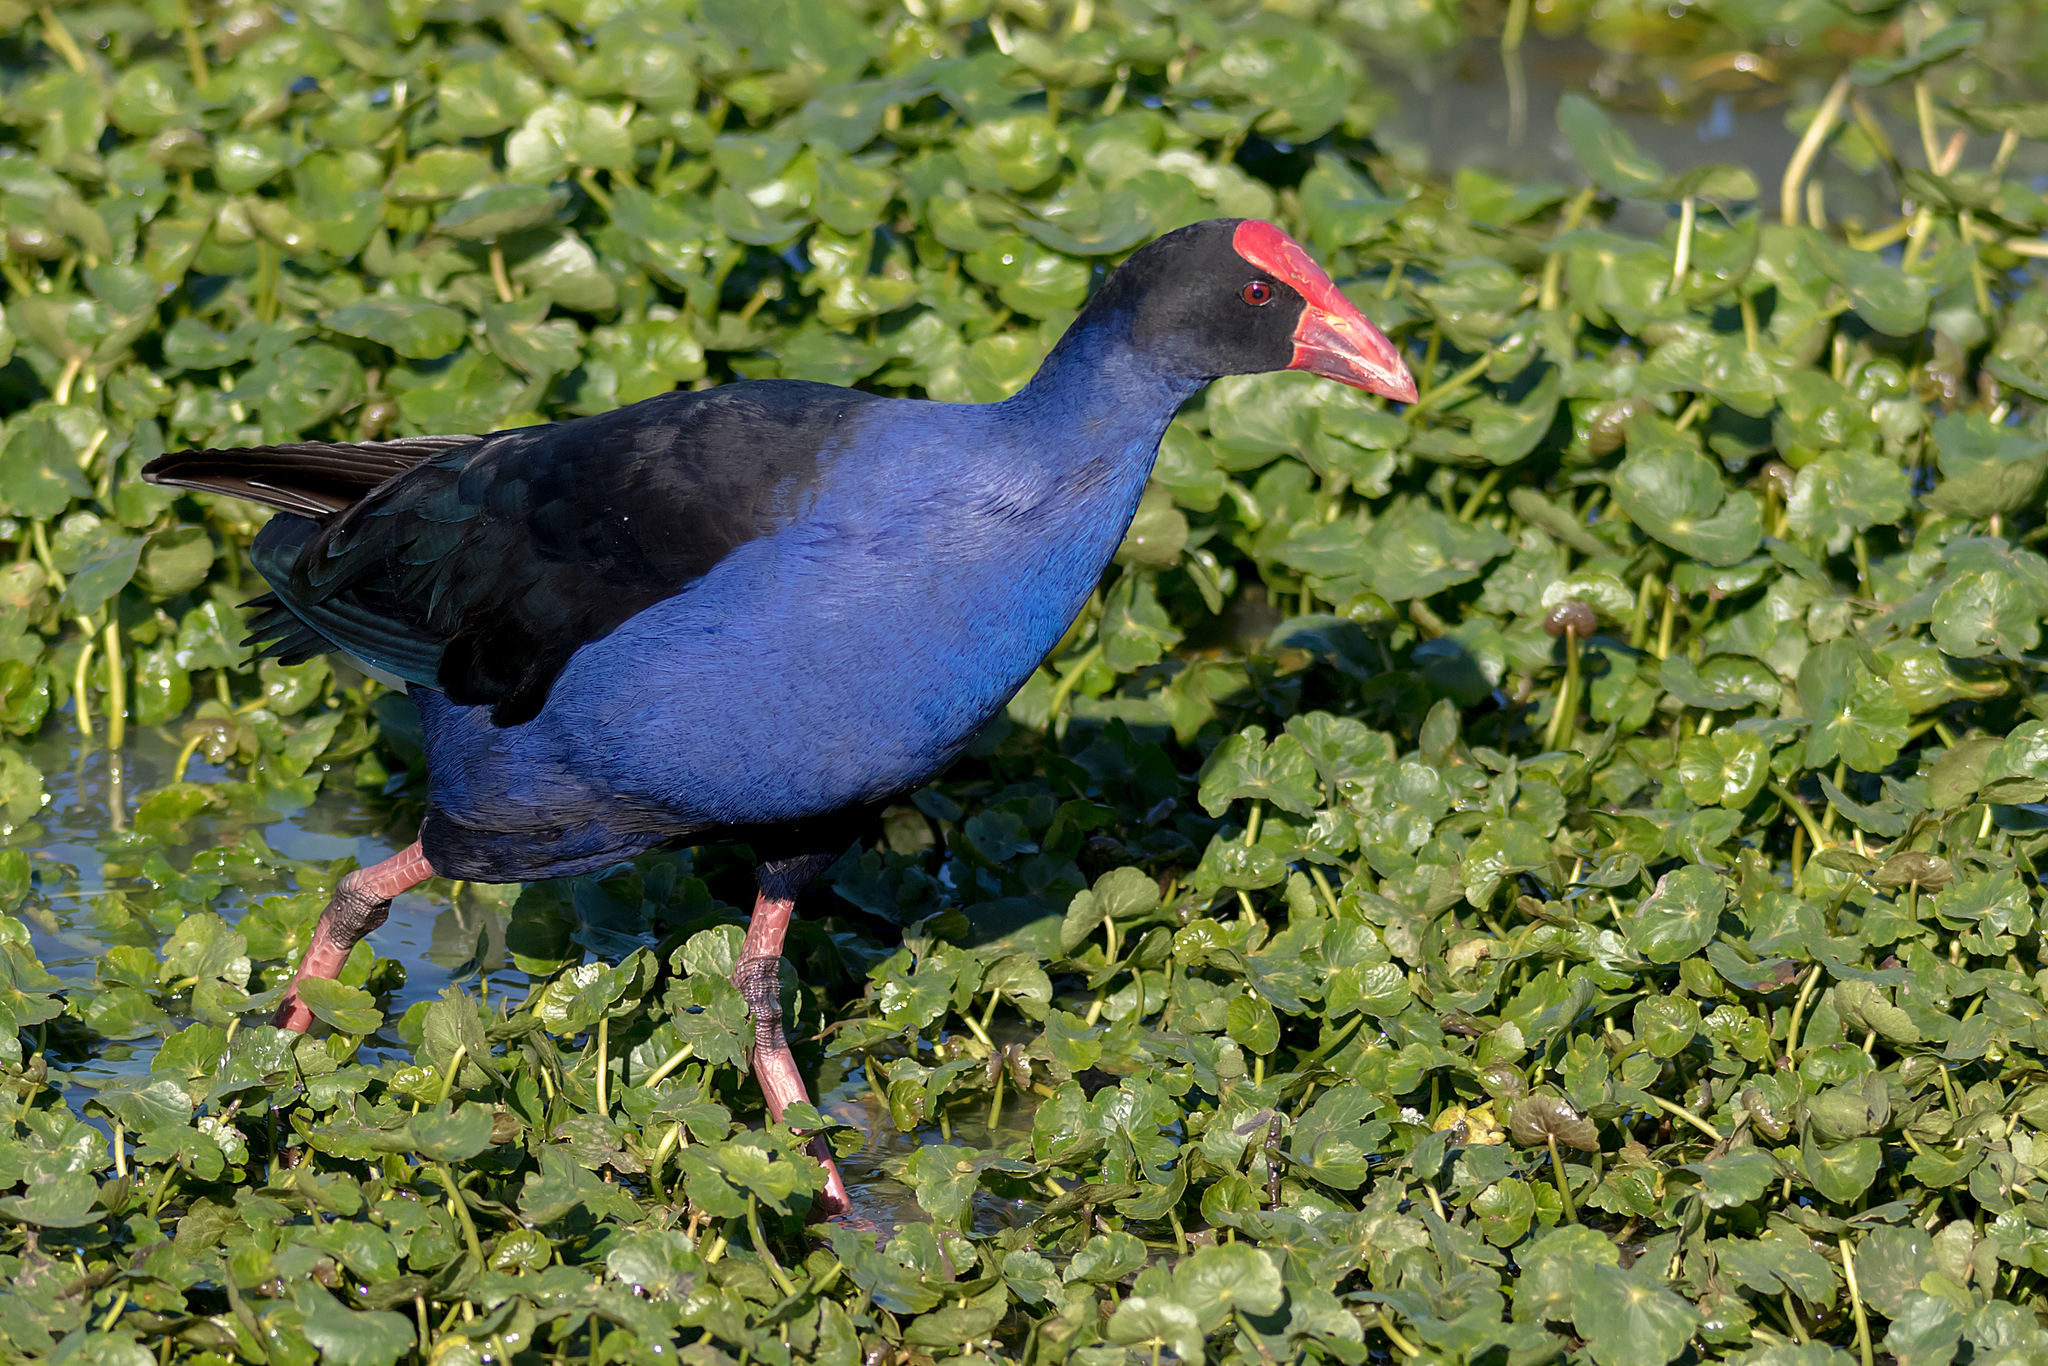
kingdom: Animalia
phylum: Chordata
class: Aves
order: Gruiformes
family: Rallidae
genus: Porphyrio
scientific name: Porphyrio melanotus
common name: Australasian swamphen
